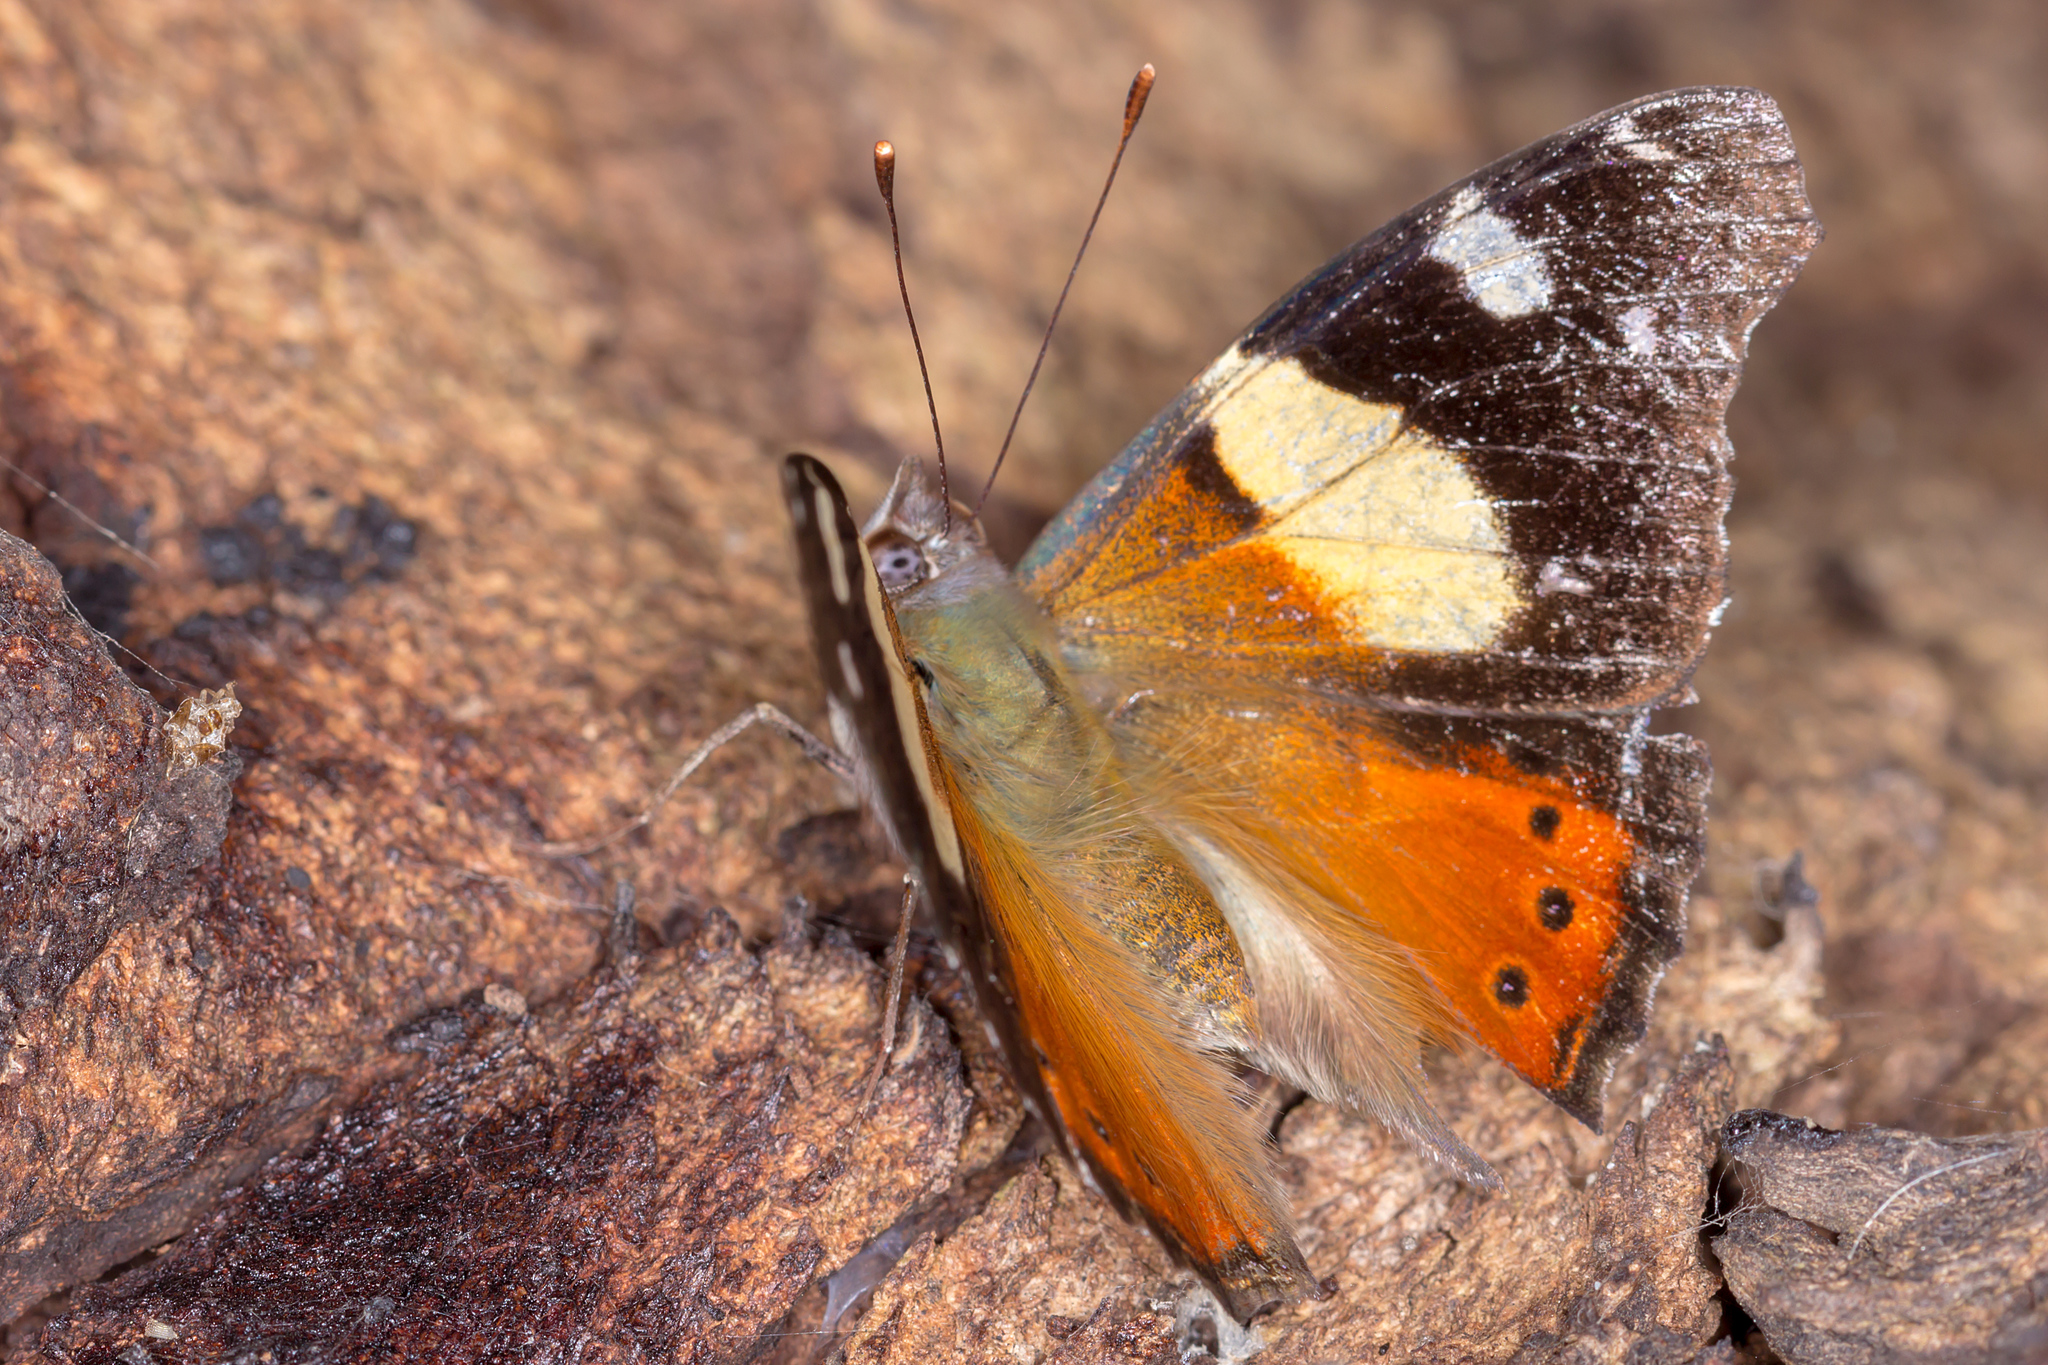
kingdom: Animalia
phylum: Arthropoda
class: Insecta
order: Lepidoptera
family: Nymphalidae
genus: Vanessa
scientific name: Vanessa itea
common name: Yellow admiral
